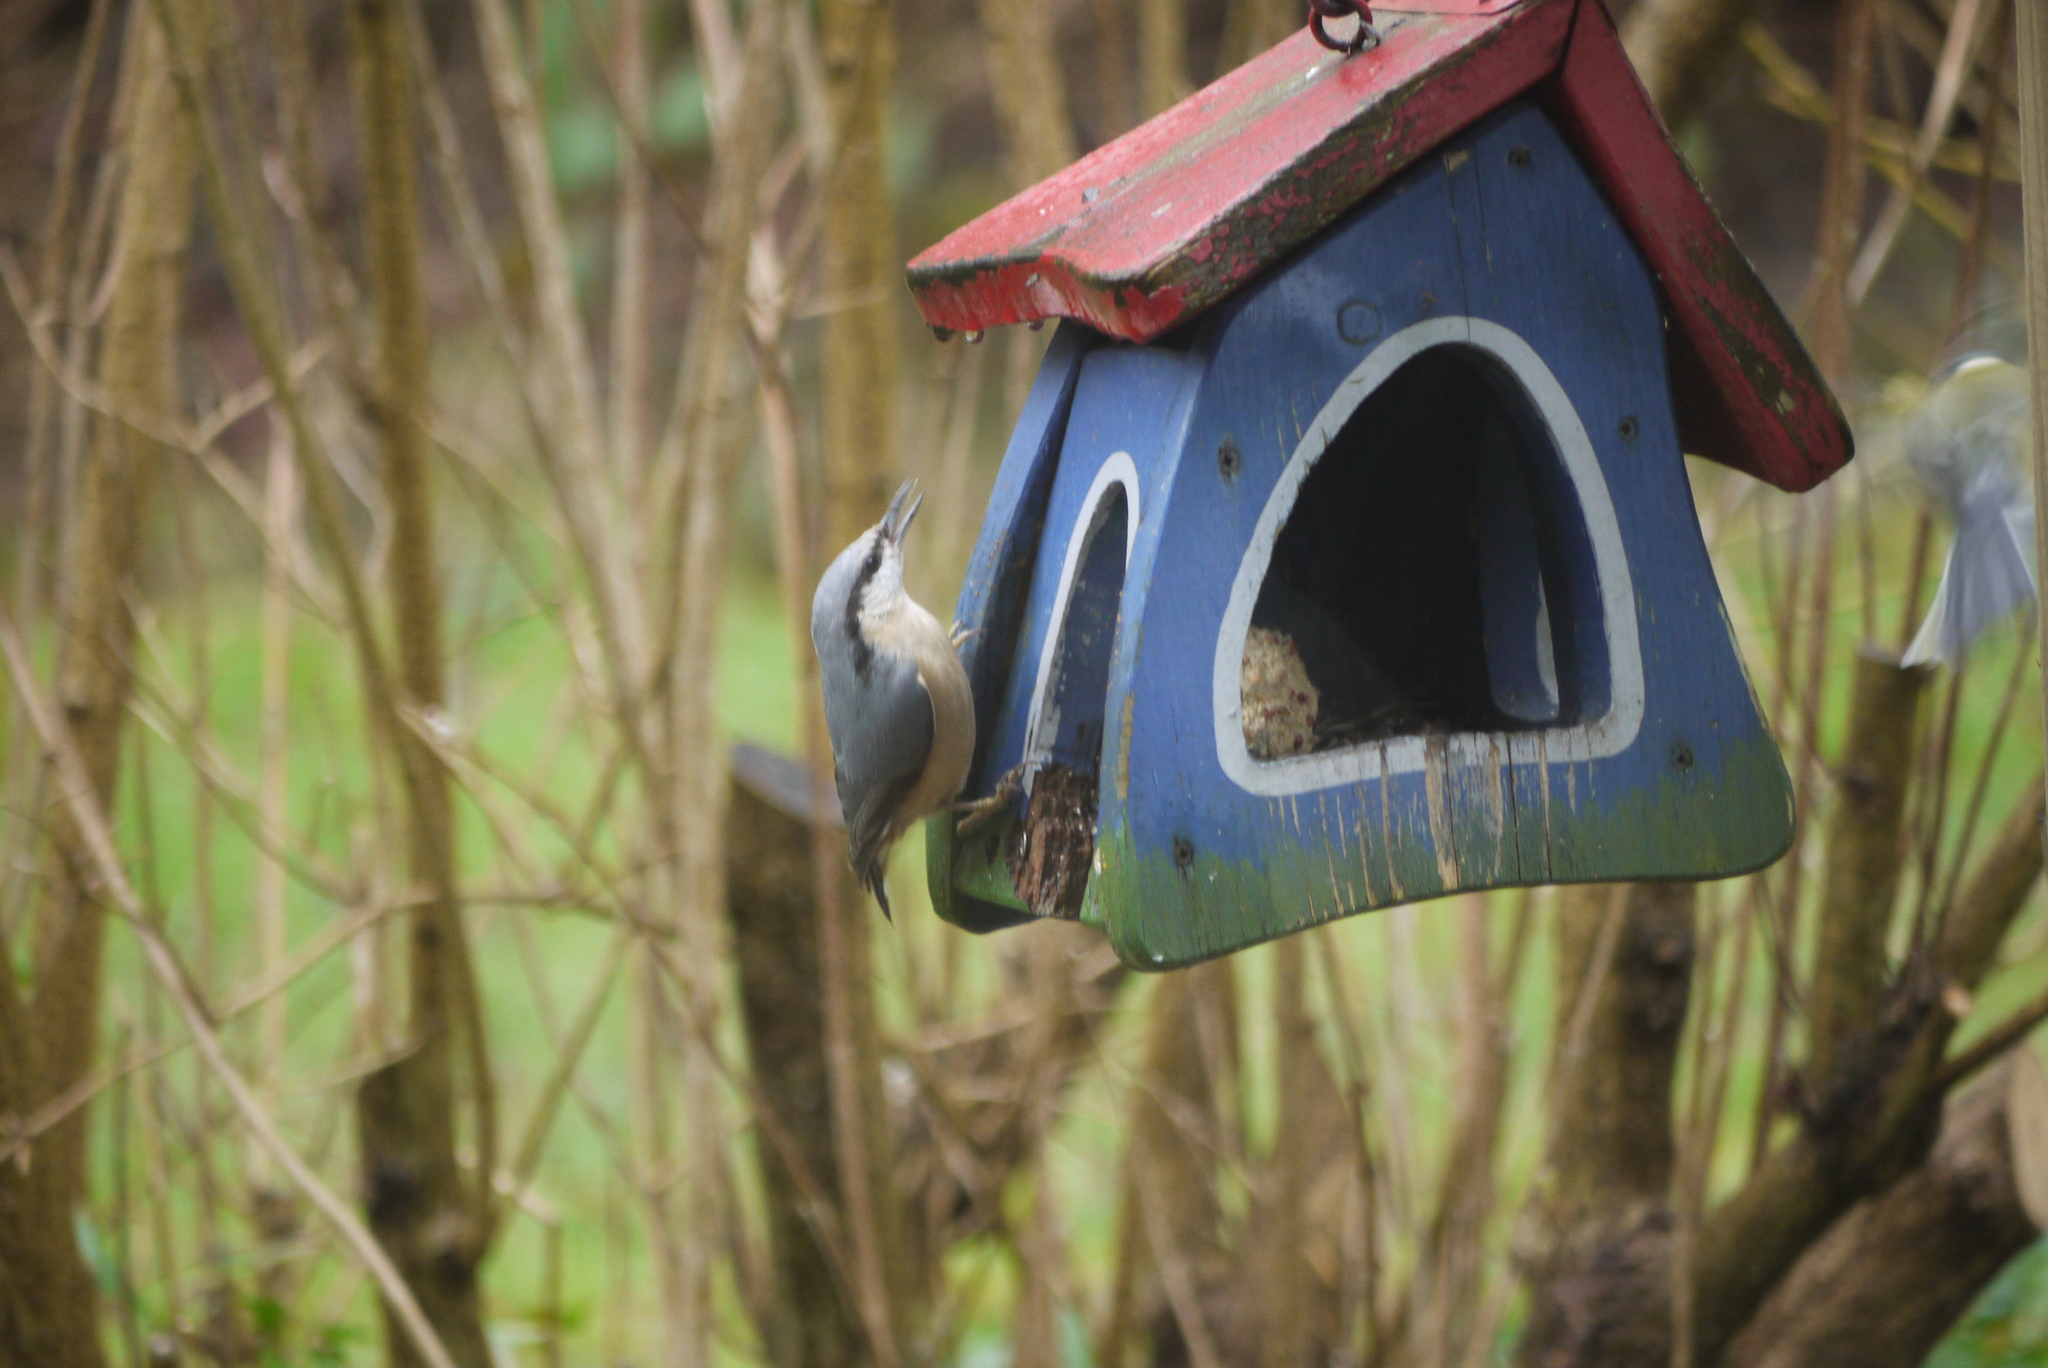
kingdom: Animalia
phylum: Chordata
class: Aves
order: Passeriformes
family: Sittidae
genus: Sitta
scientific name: Sitta europaea
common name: Eurasian nuthatch
